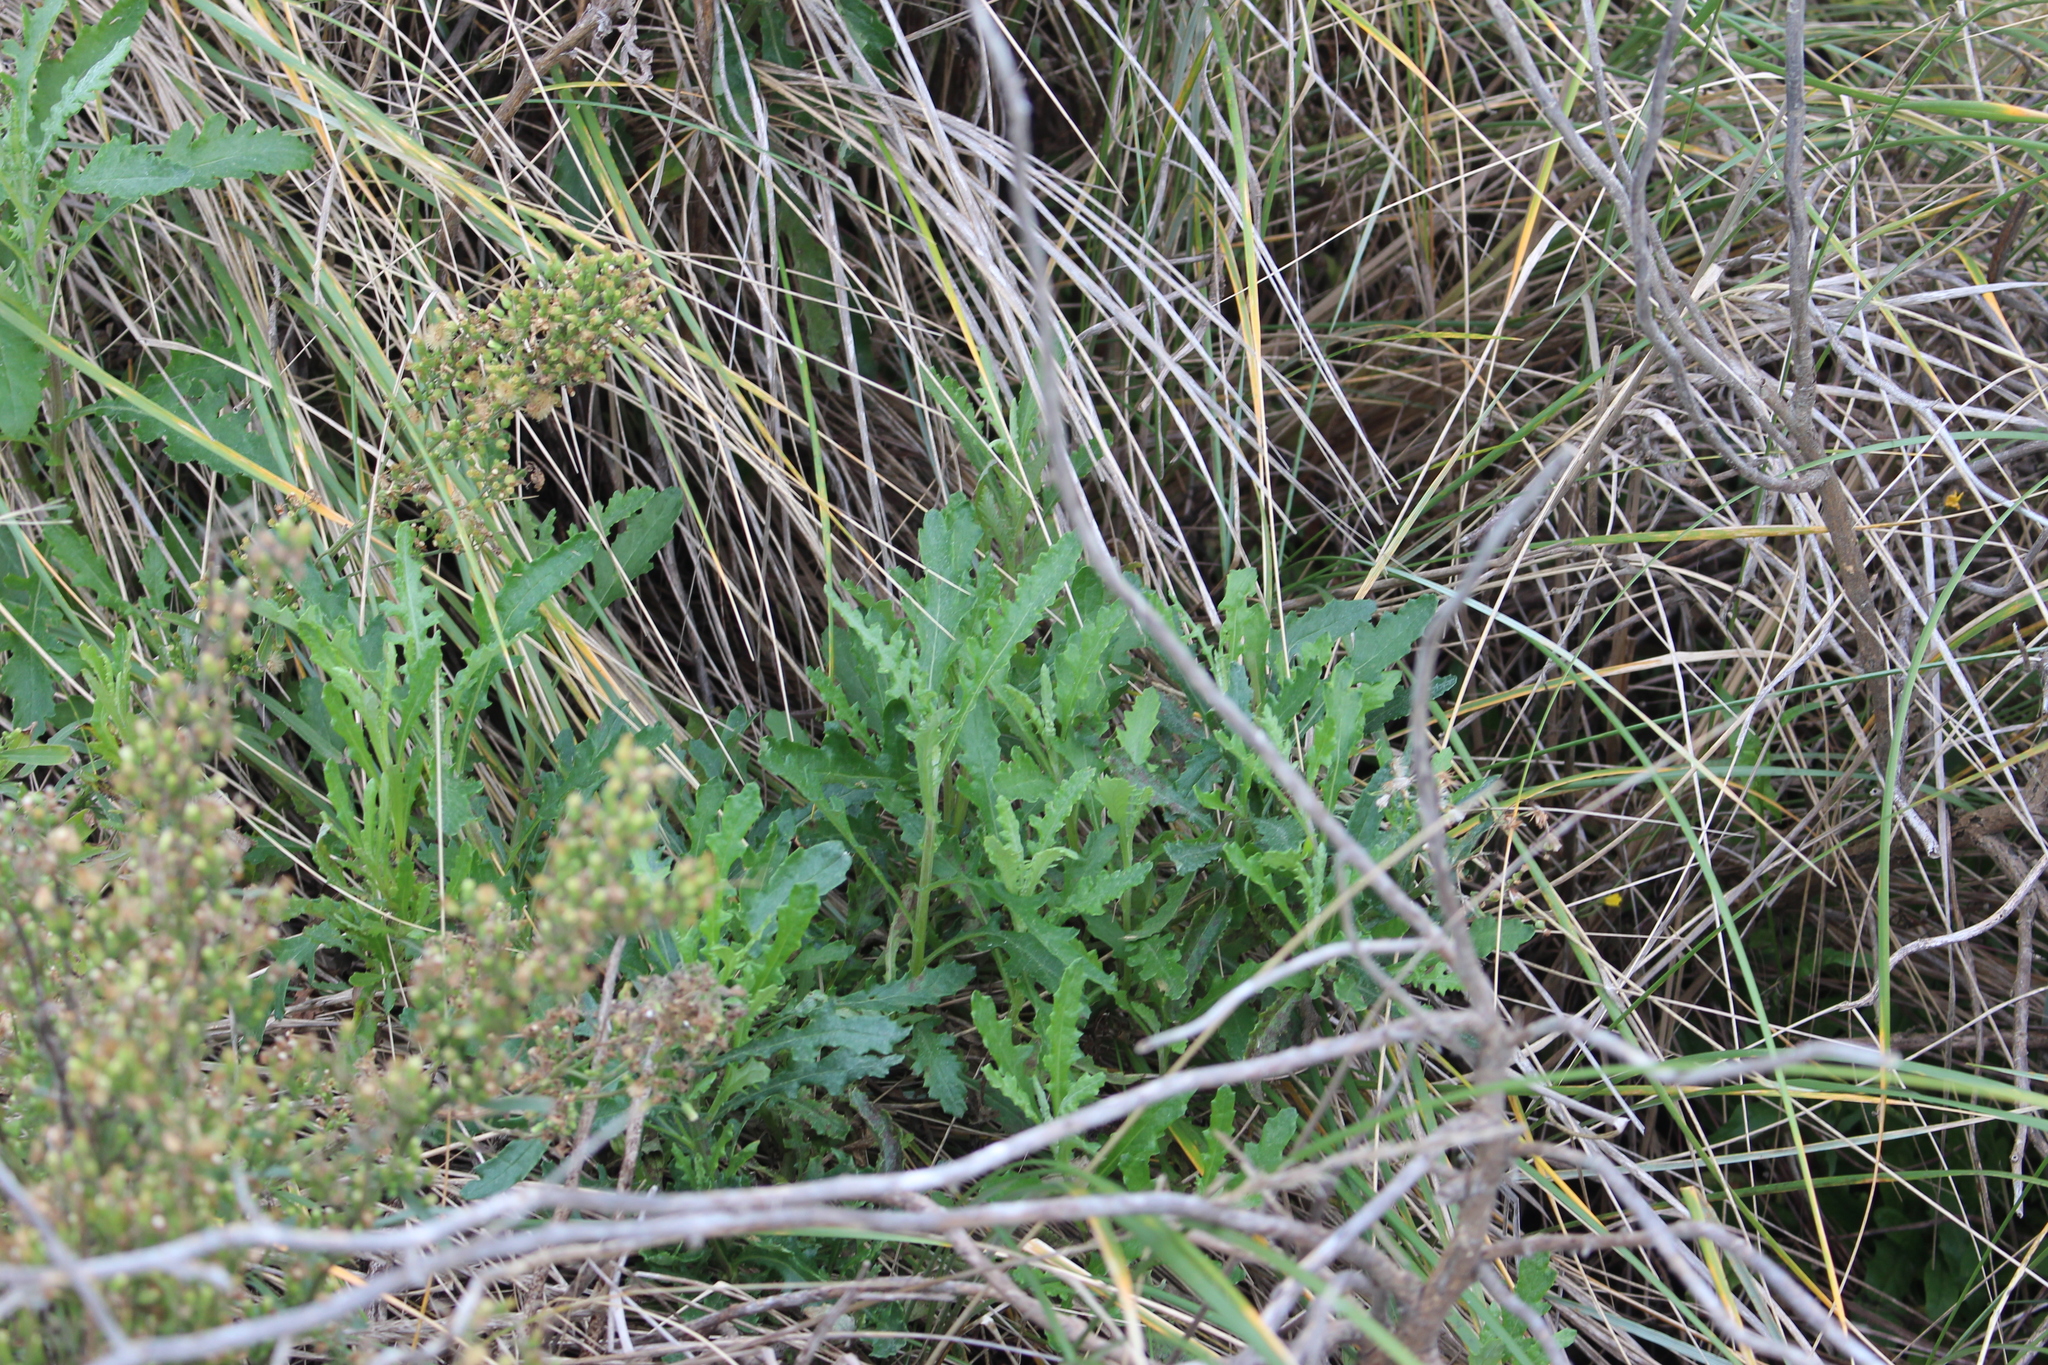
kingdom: Plantae
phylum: Tracheophyta
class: Magnoliopsida
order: Asterales
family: Asteraceae
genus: Senecio
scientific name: Senecio glomeratus
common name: Cutleaf burnweed
